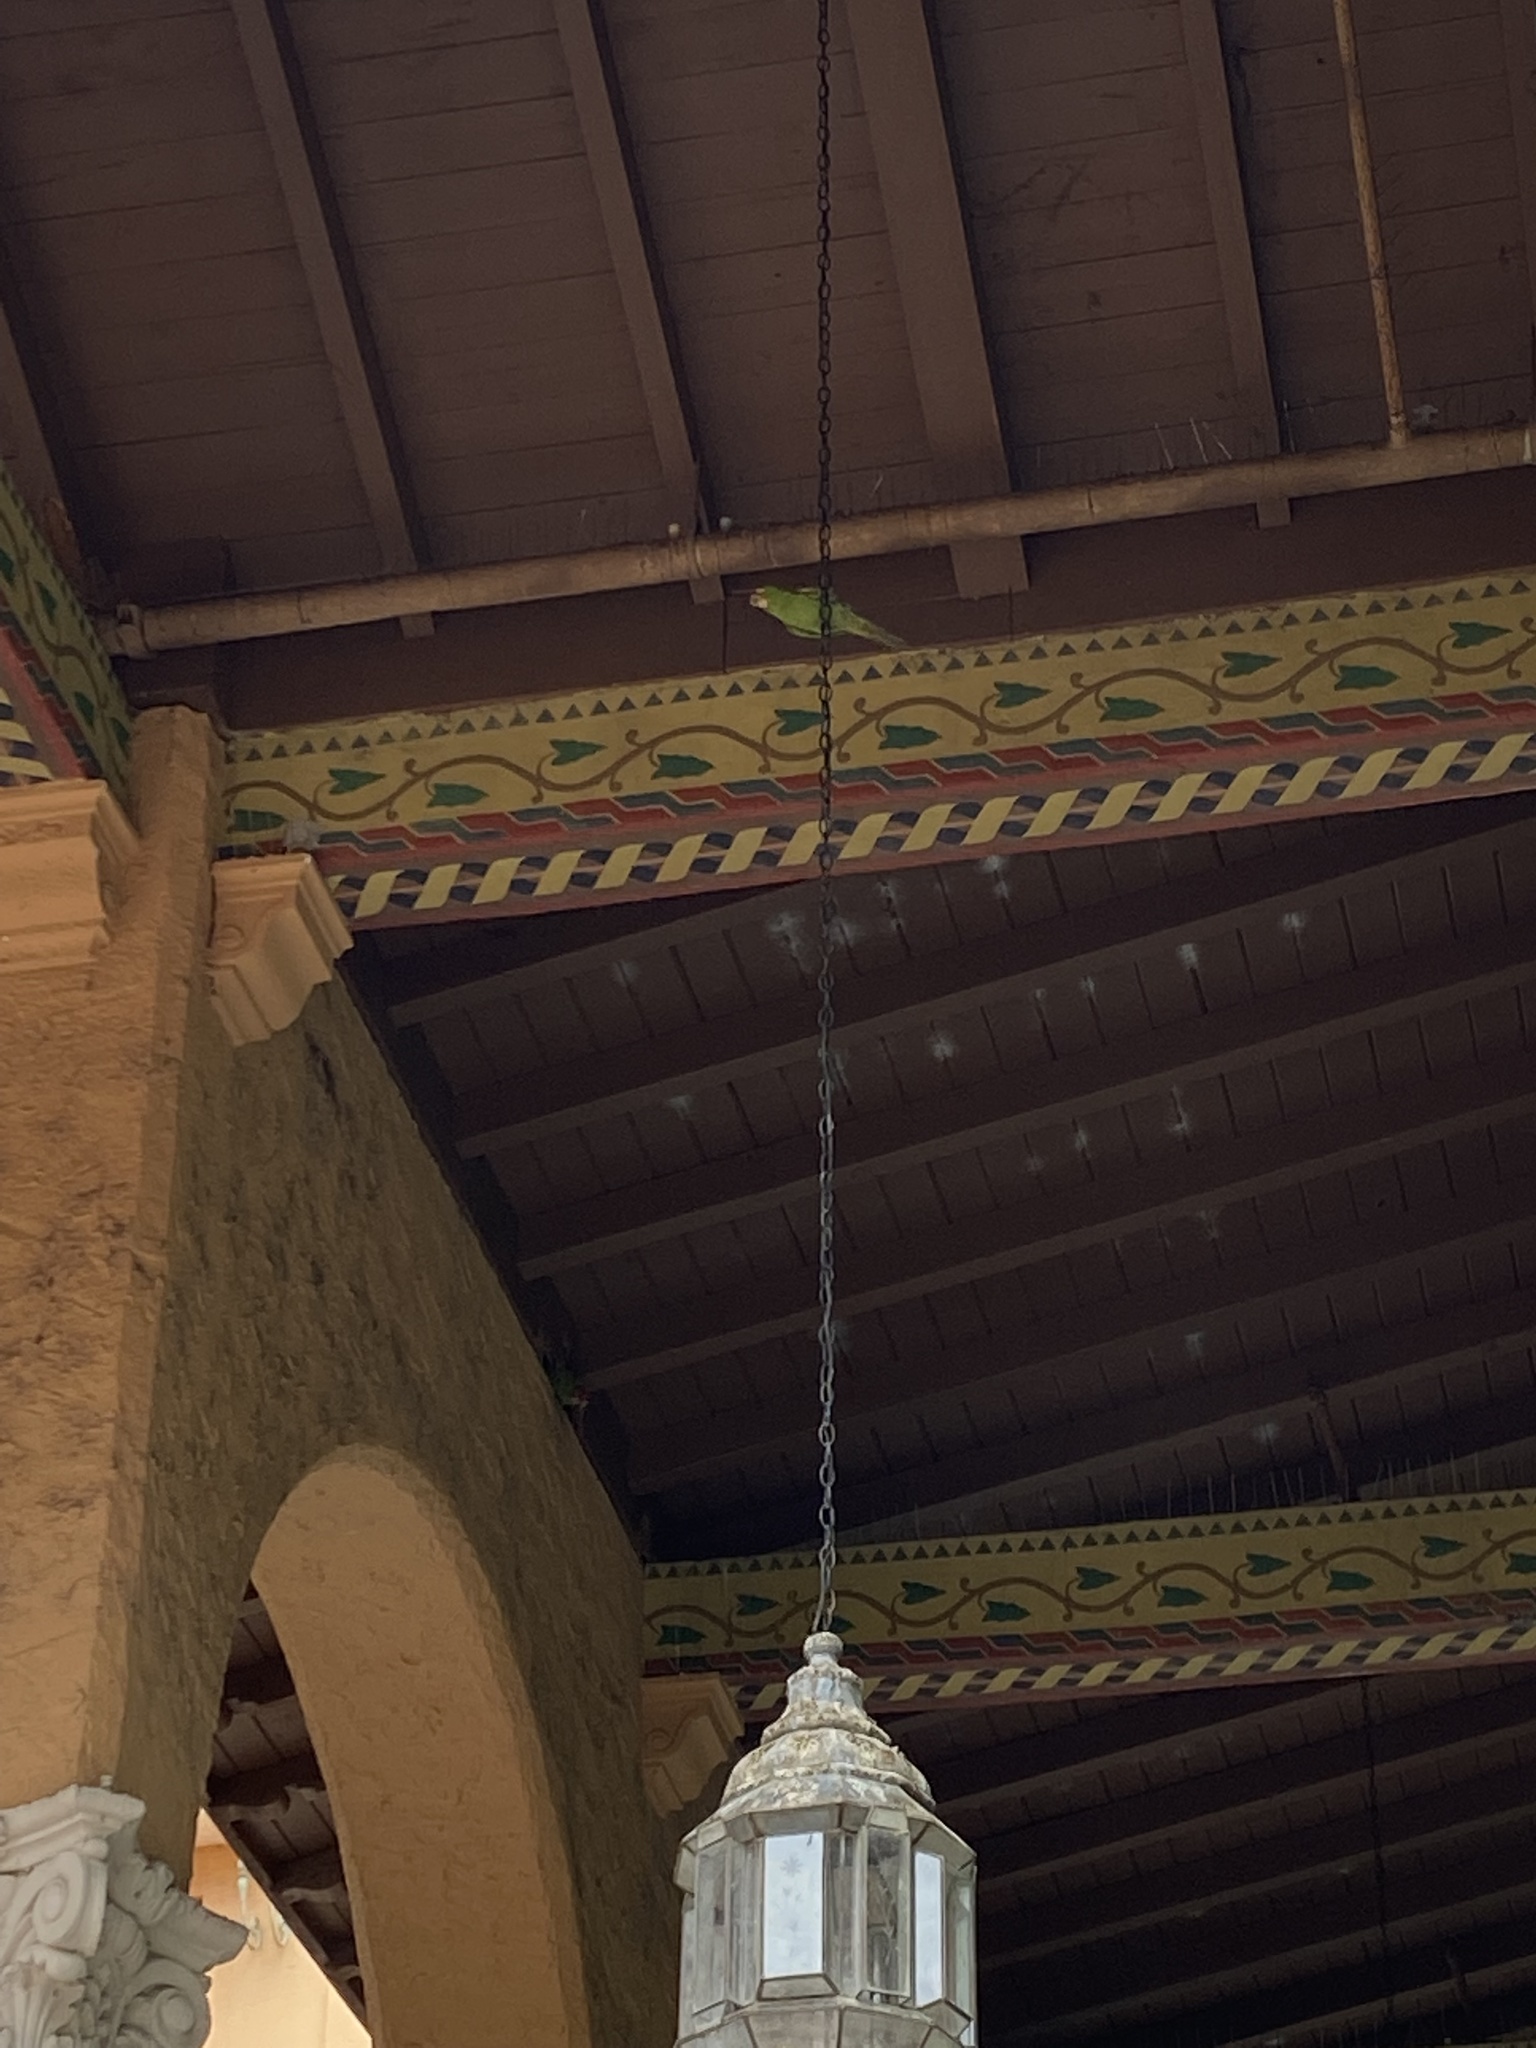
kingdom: Animalia
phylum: Chordata
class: Aves
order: Psittaciformes
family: Psittacidae
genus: Psittacara
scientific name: Psittacara
